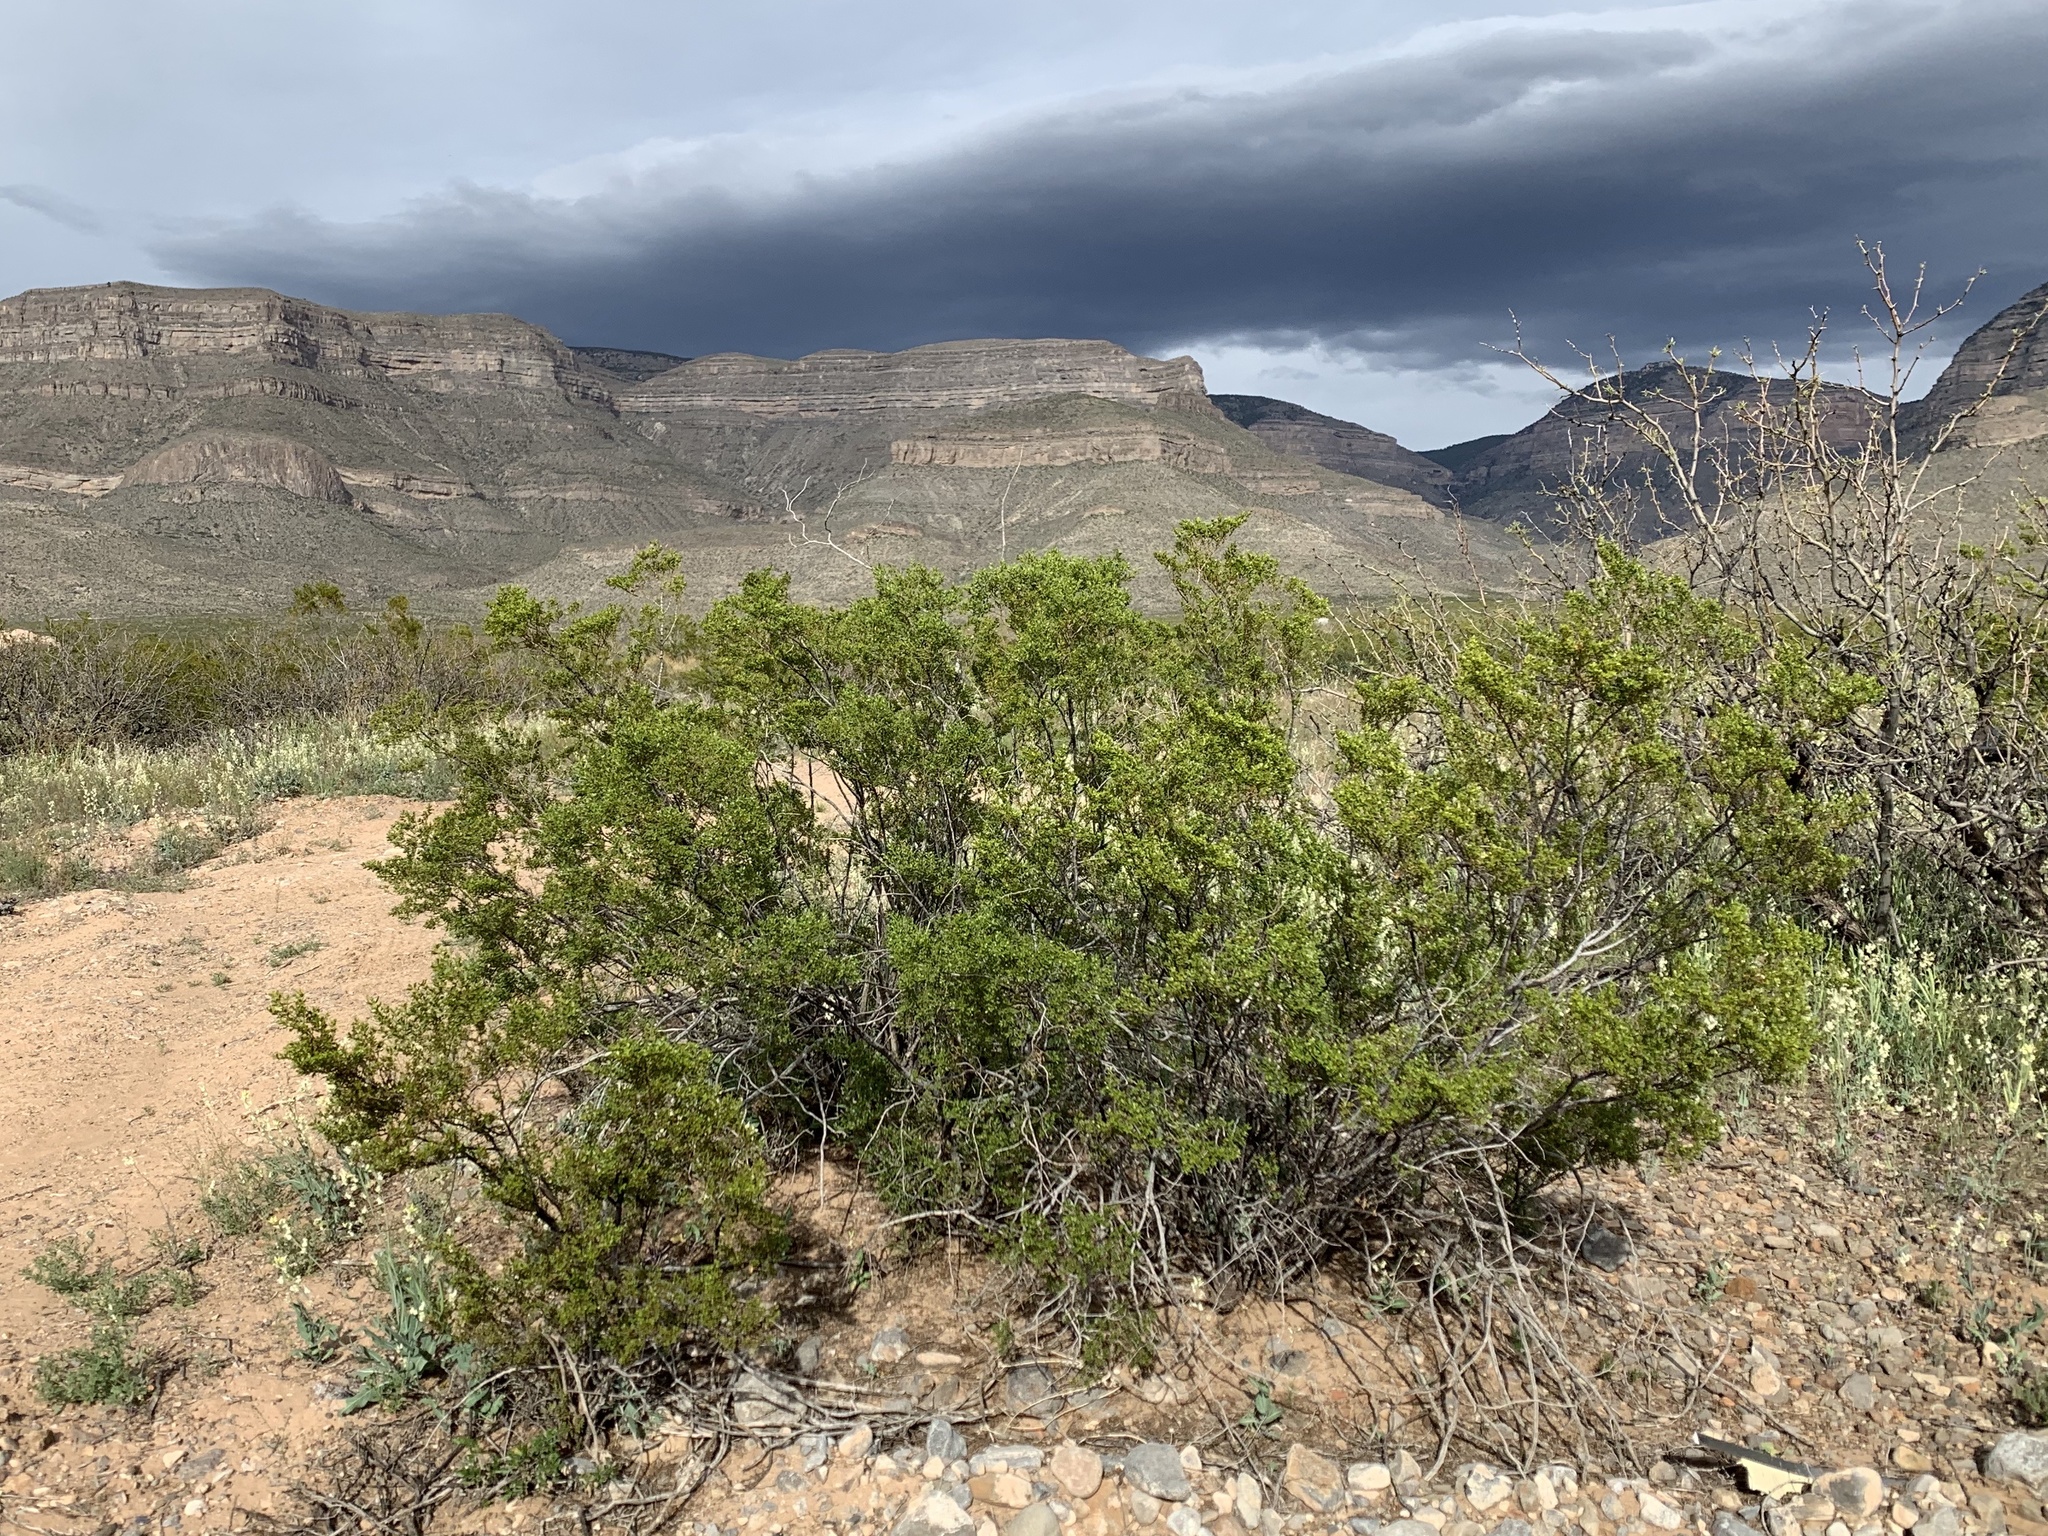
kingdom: Plantae
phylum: Tracheophyta
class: Magnoliopsida
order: Zygophyllales
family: Zygophyllaceae
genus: Larrea
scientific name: Larrea tridentata
